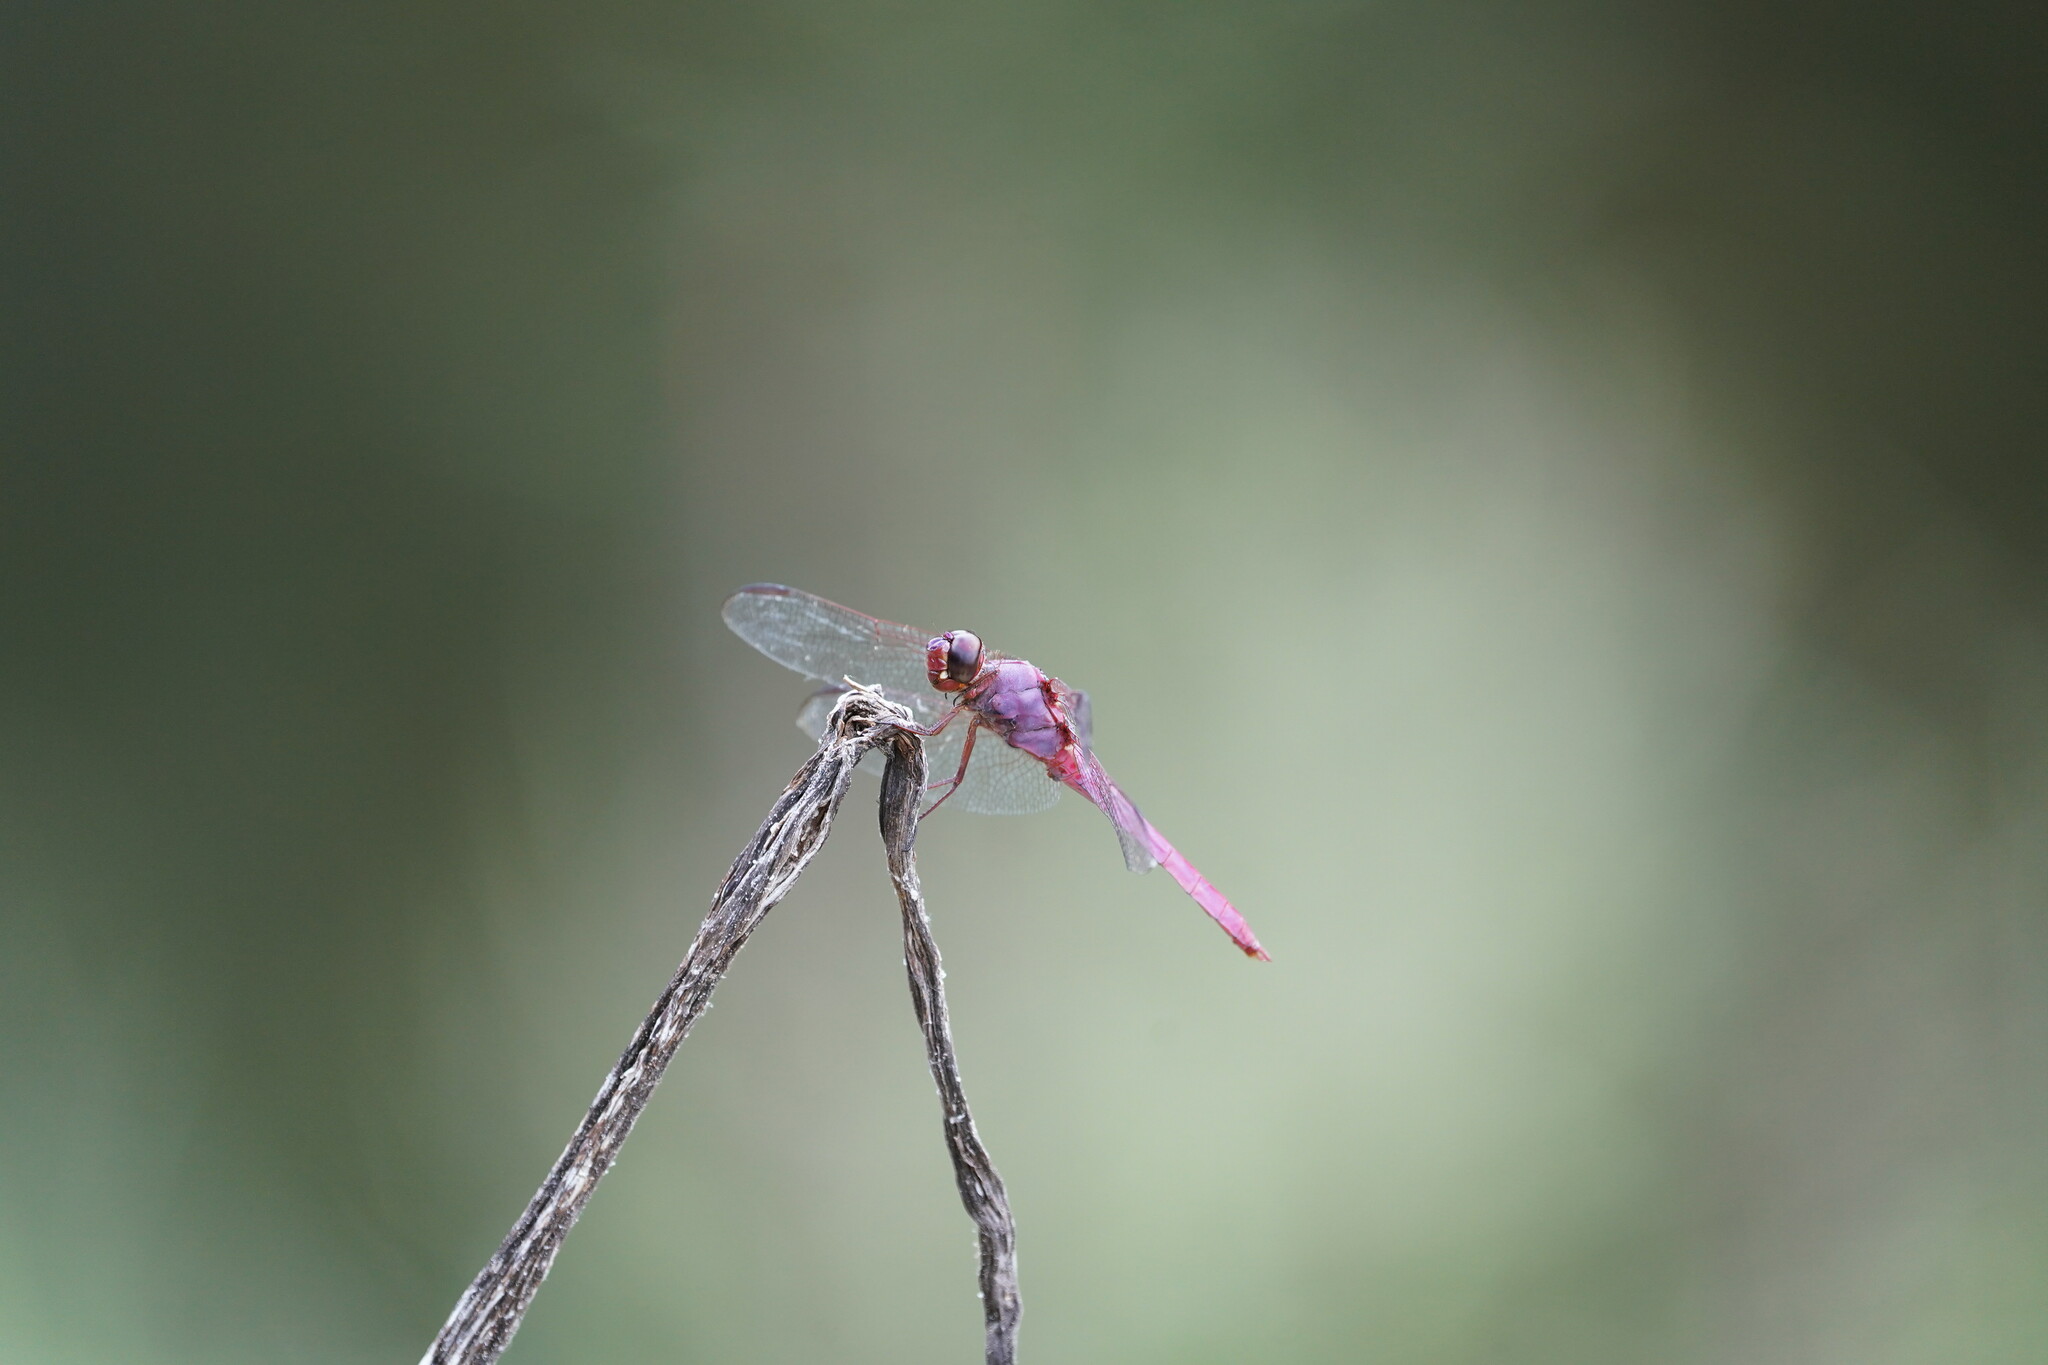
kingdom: Animalia
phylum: Arthropoda
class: Insecta
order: Odonata
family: Libellulidae
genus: Orthemis
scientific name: Orthemis ferruginea
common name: Roseate skimmer
